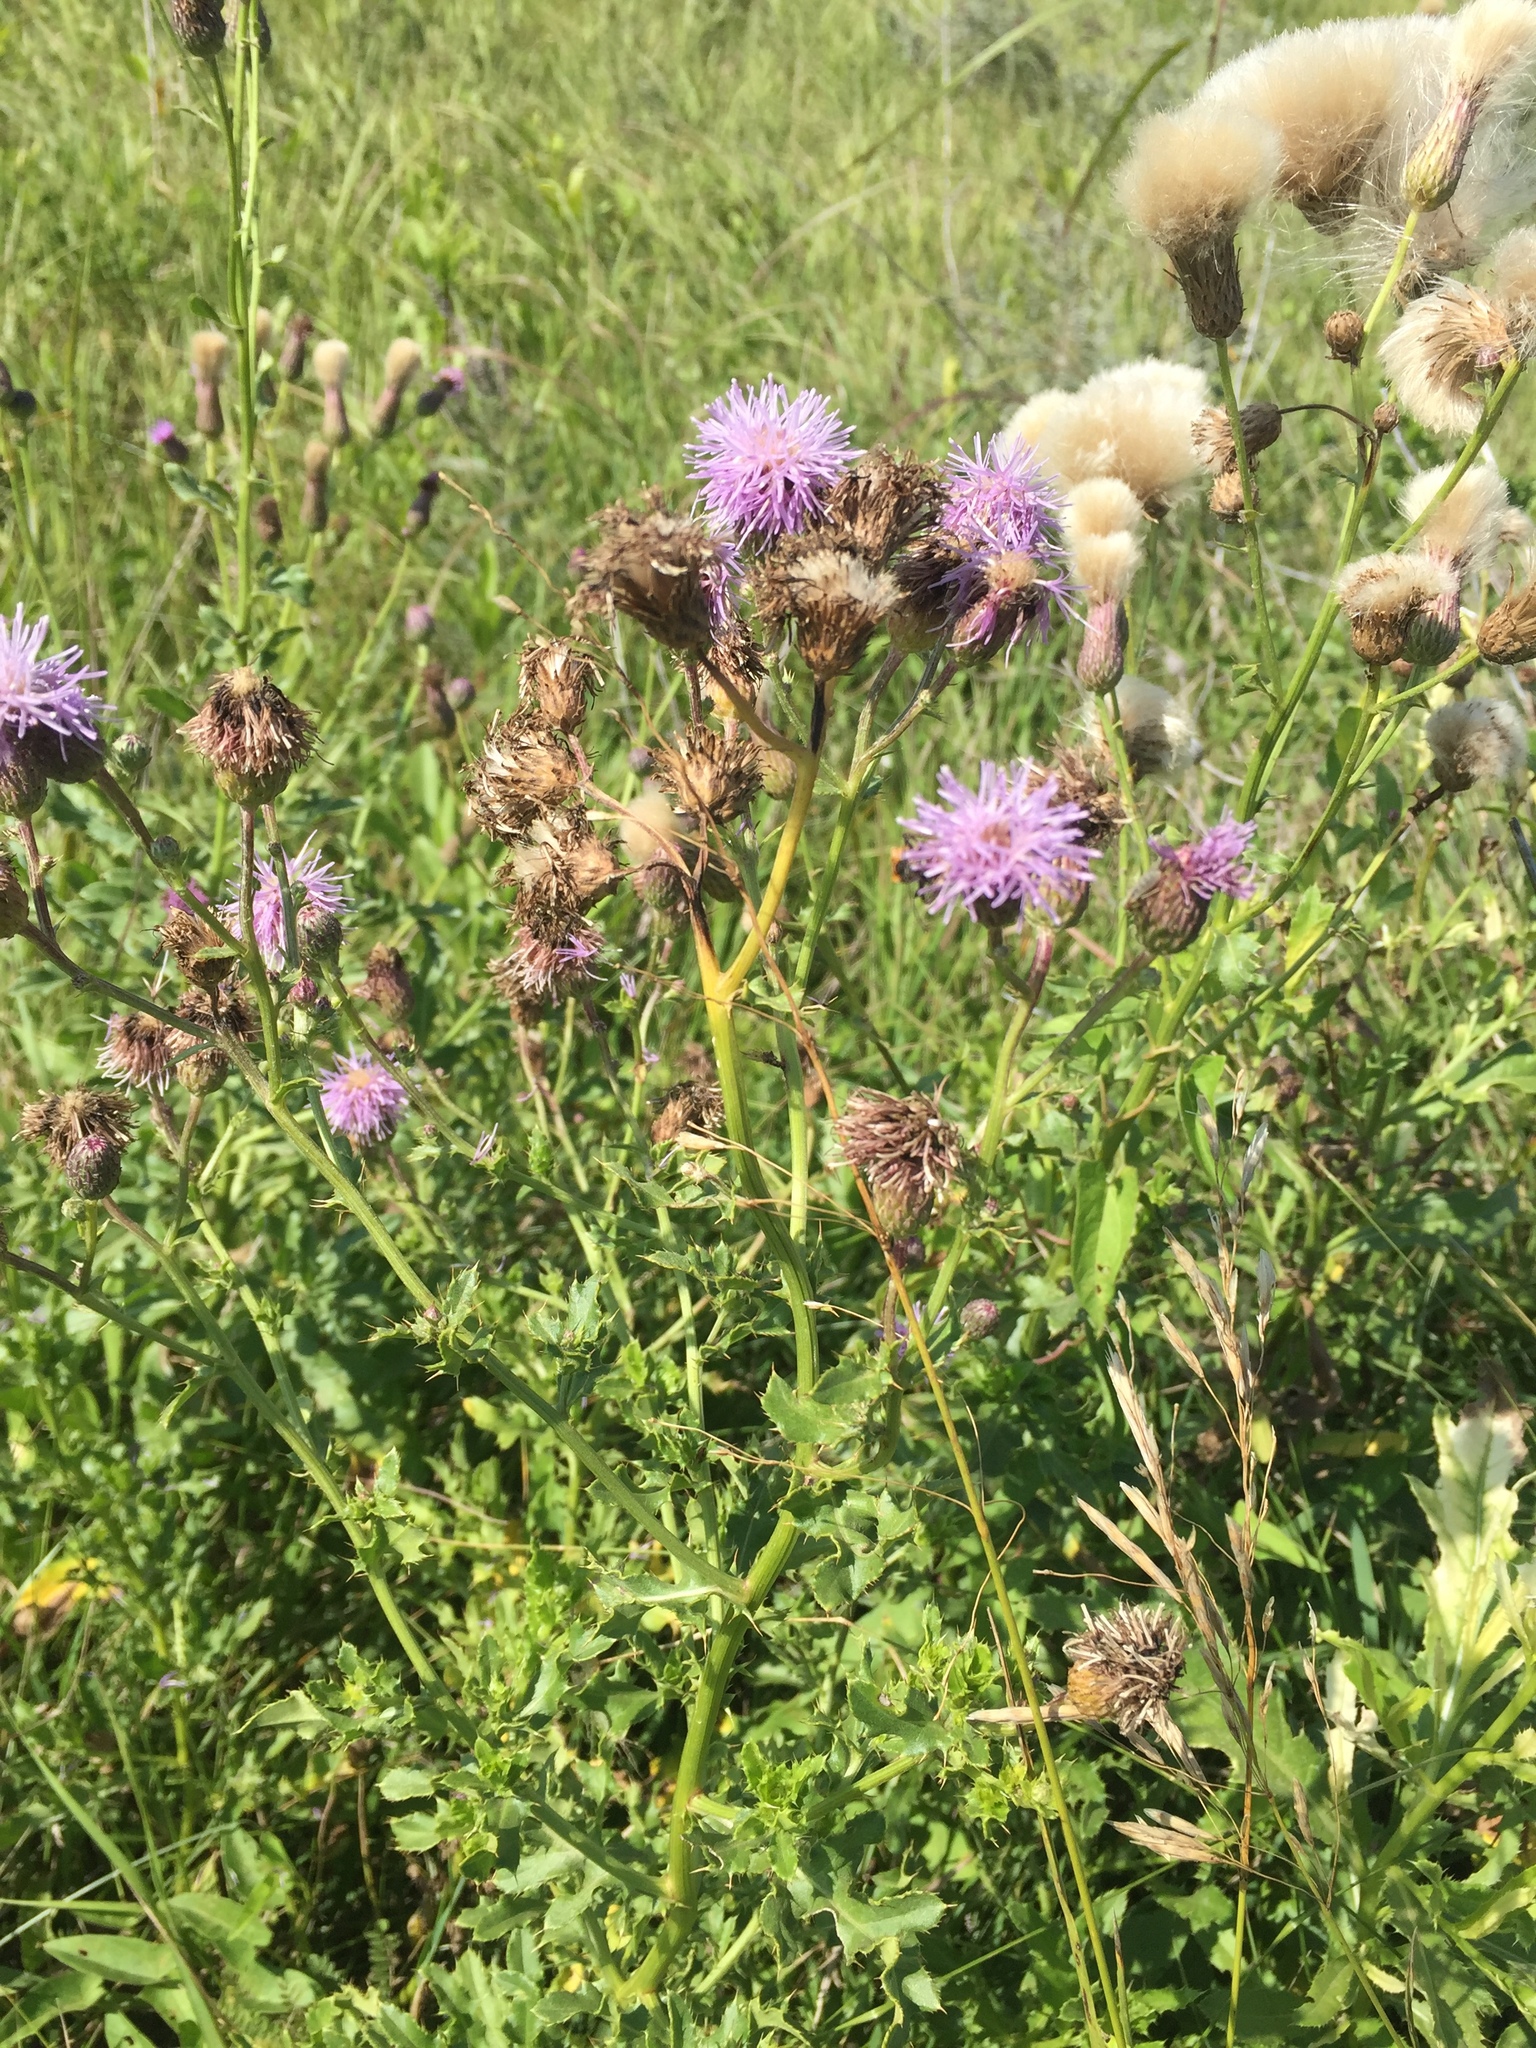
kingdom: Plantae
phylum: Tracheophyta
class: Magnoliopsida
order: Asterales
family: Asteraceae
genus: Cirsium
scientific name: Cirsium arvense
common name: Creeping thistle
